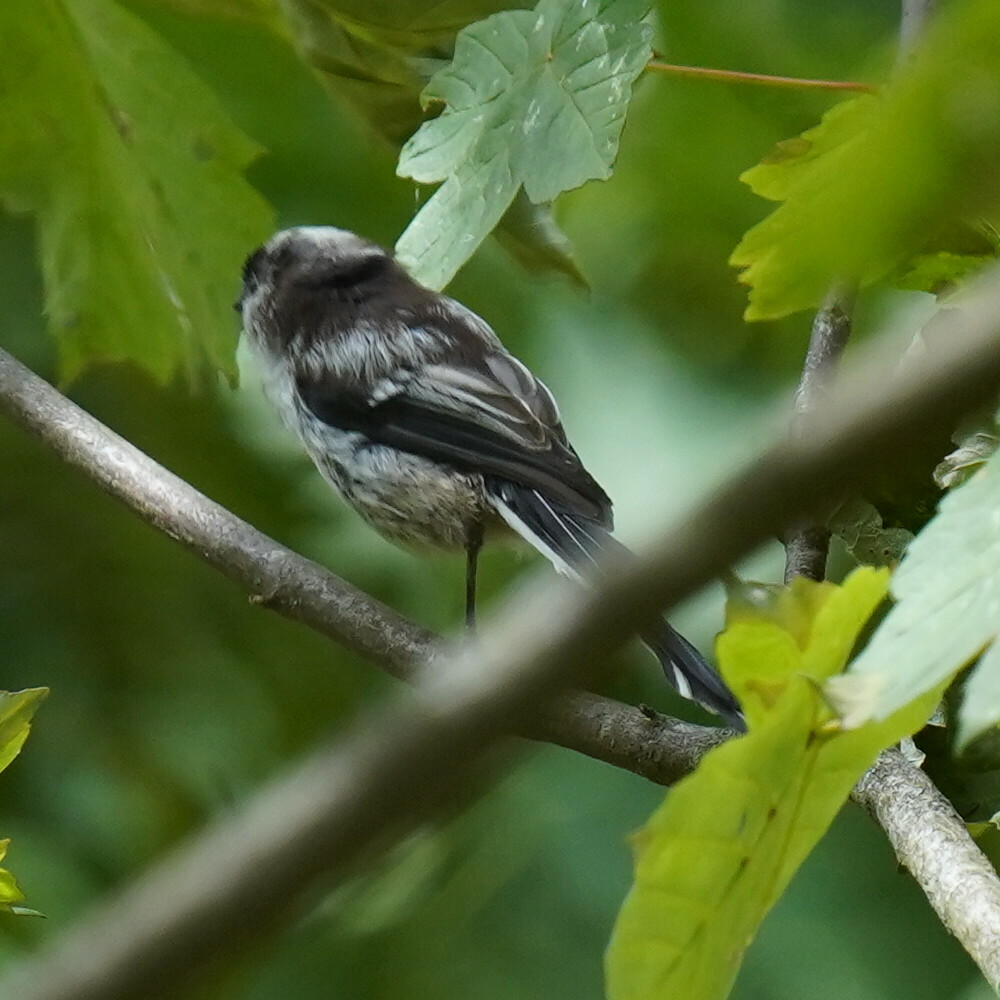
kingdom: Animalia
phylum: Chordata
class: Aves
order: Passeriformes
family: Aegithalidae
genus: Aegithalos
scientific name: Aegithalos caudatus
